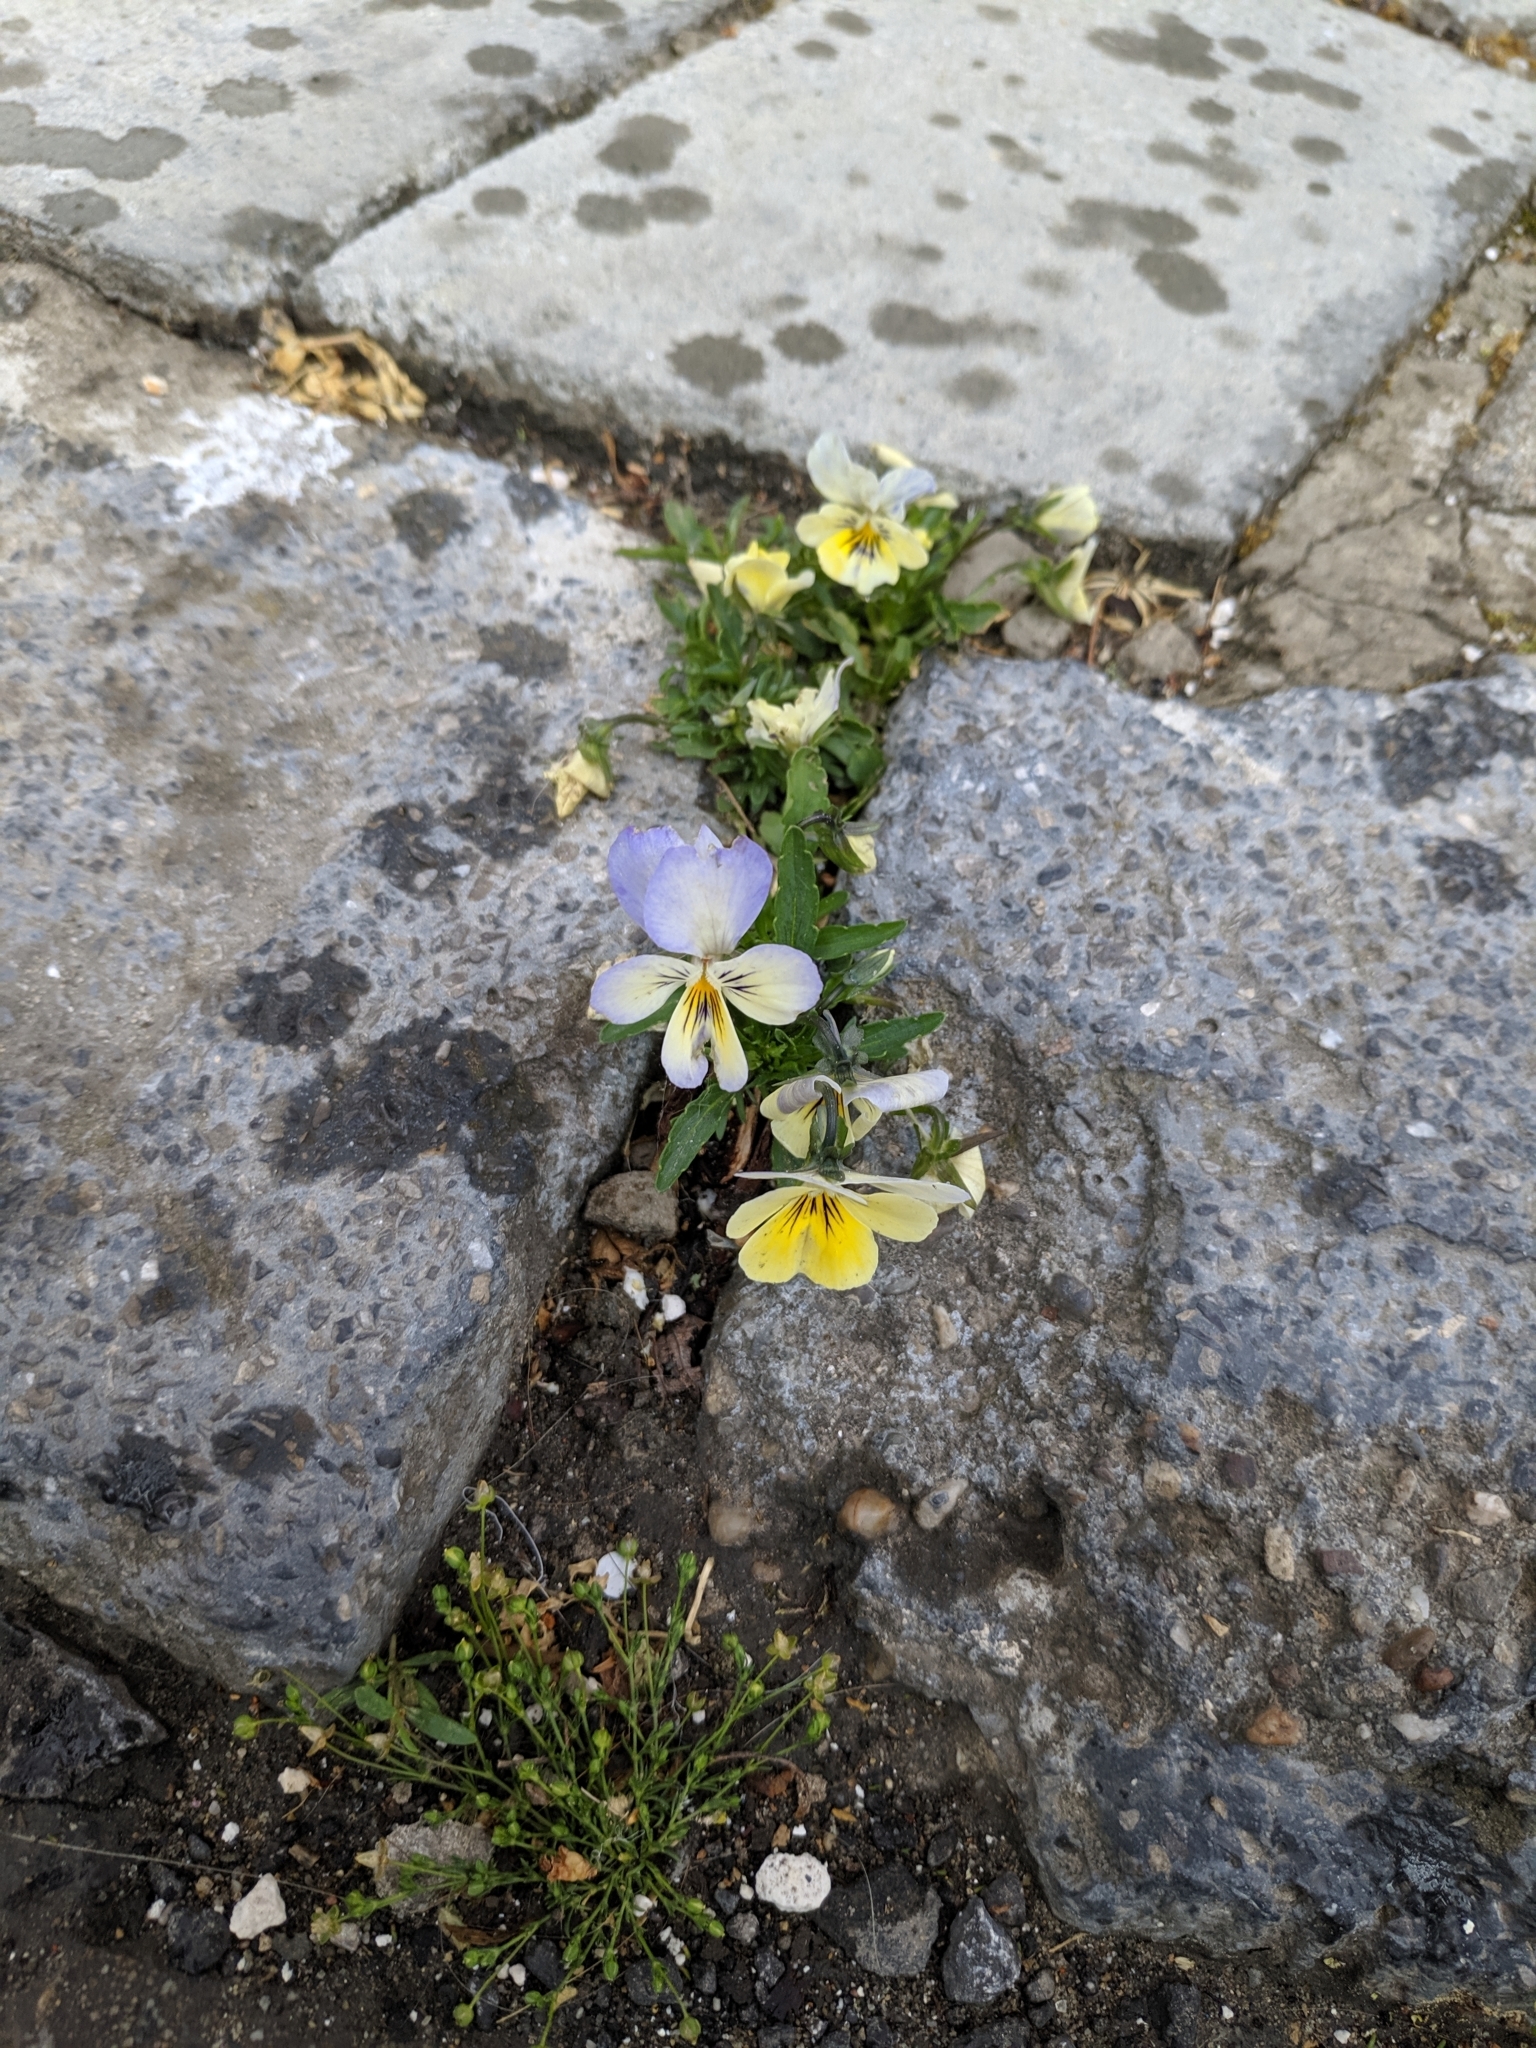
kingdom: Plantae
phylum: Tracheophyta
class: Magnoliopsida
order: Malpighiales
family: Violaceae
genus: Viola
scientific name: Viola wittrockiana
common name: Garden pansy
